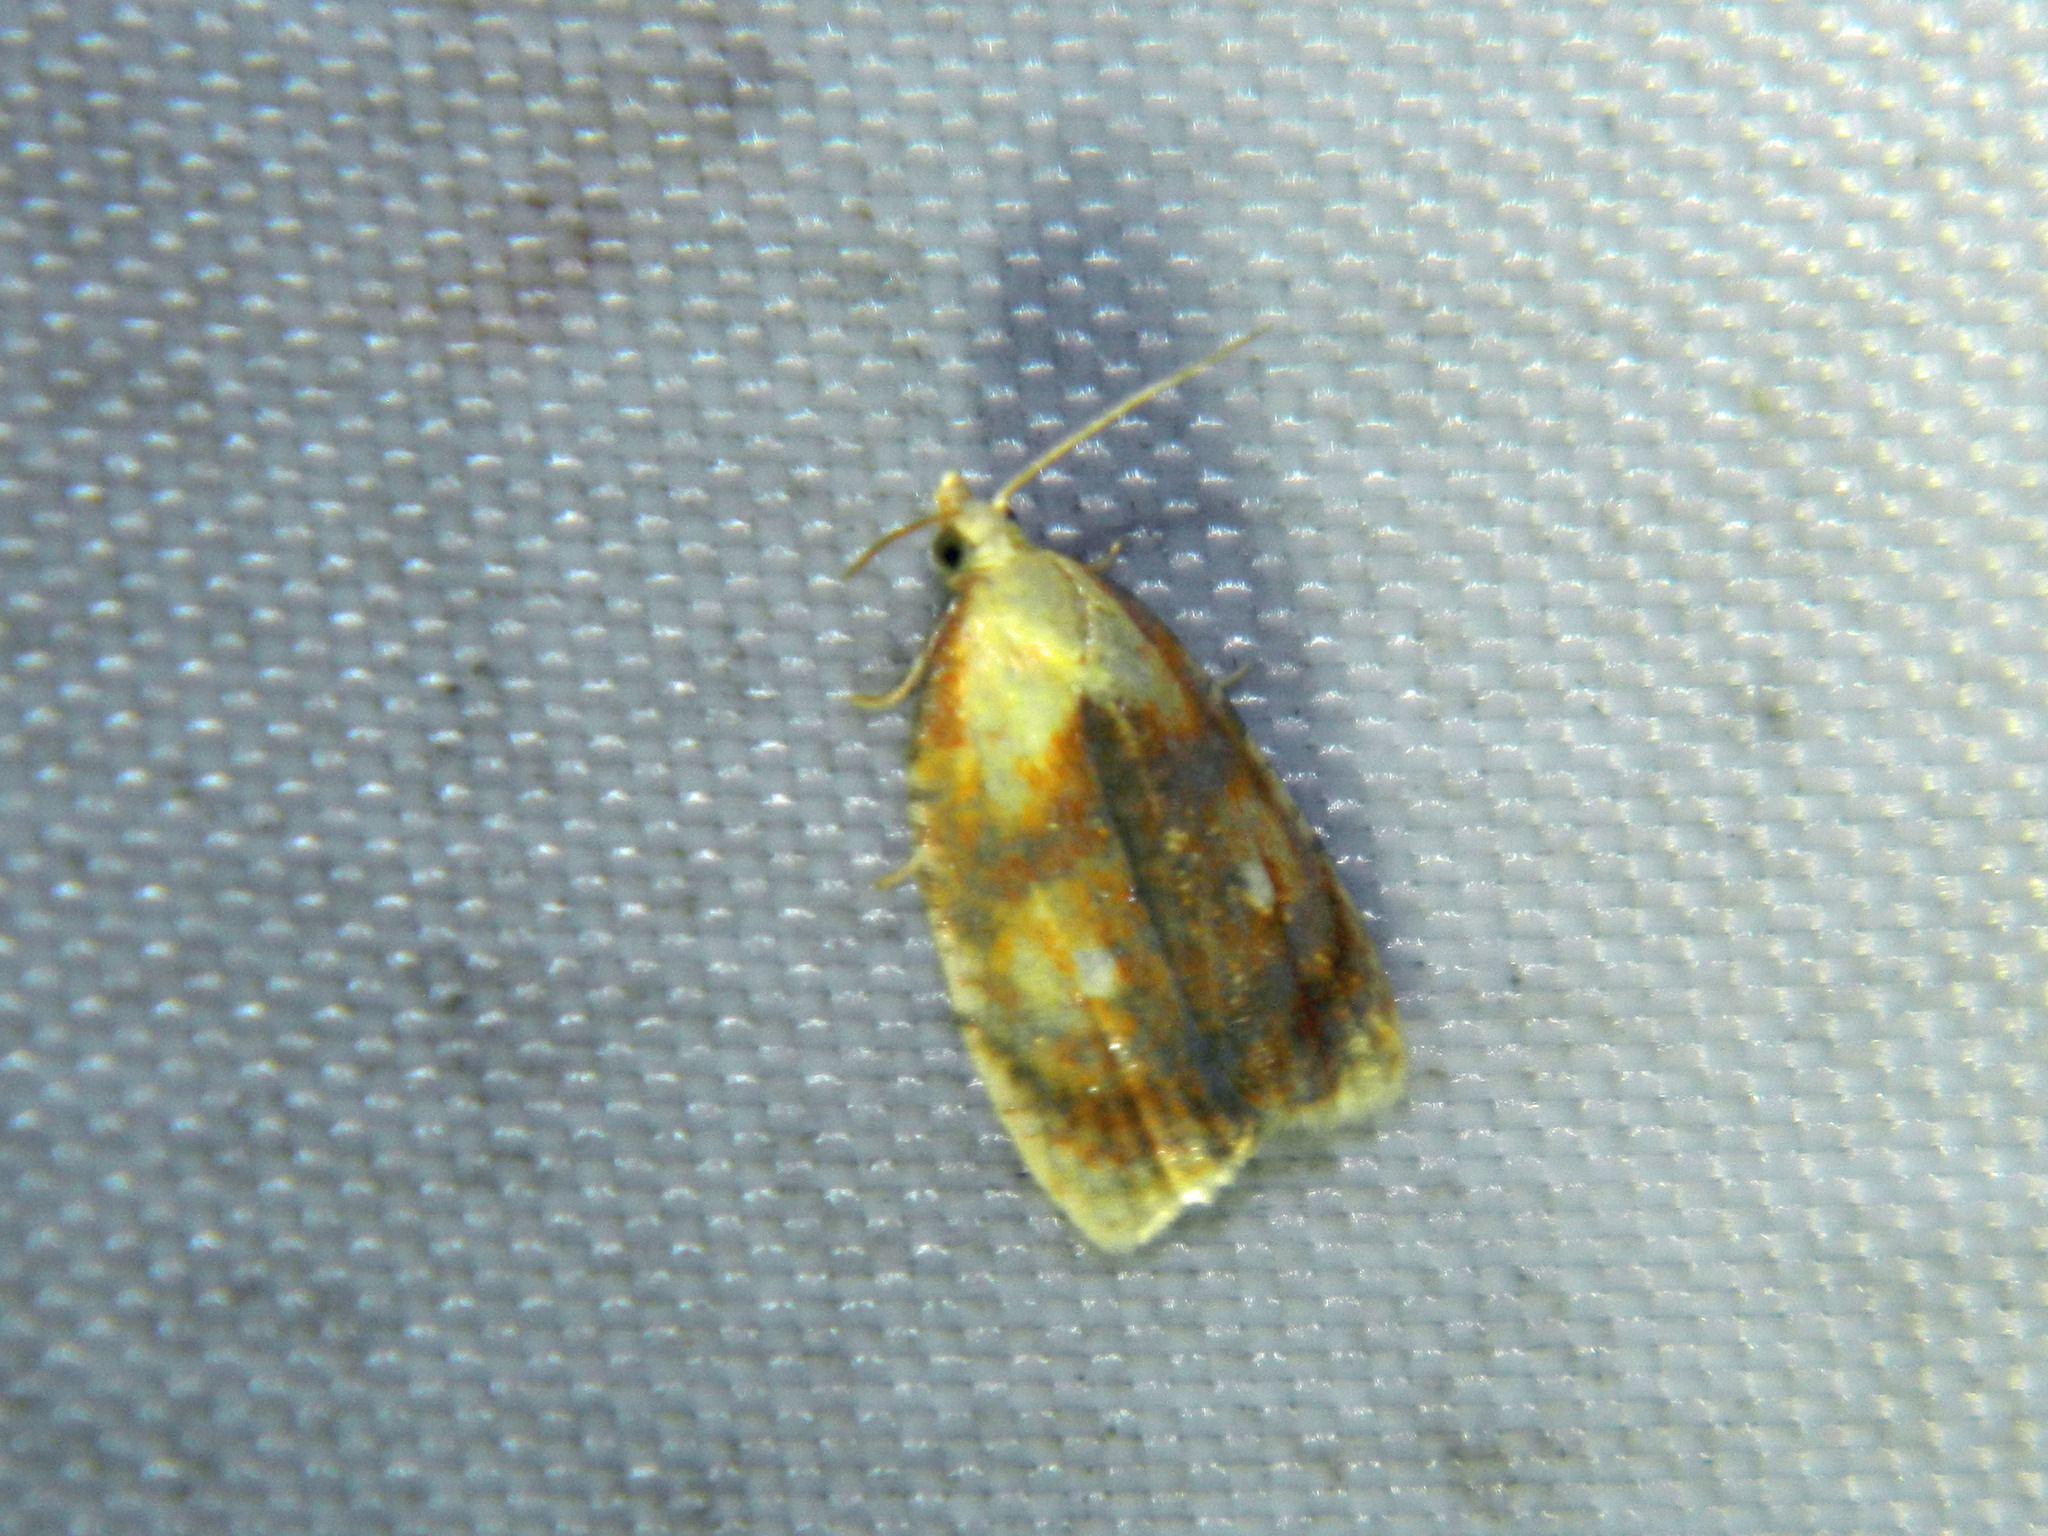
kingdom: Animalia
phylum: Arthropoda
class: Insecta
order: Lepidoptera
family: Tortricidae
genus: Acleris
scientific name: Acleris curvalana
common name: Blueberry leaftier moth
